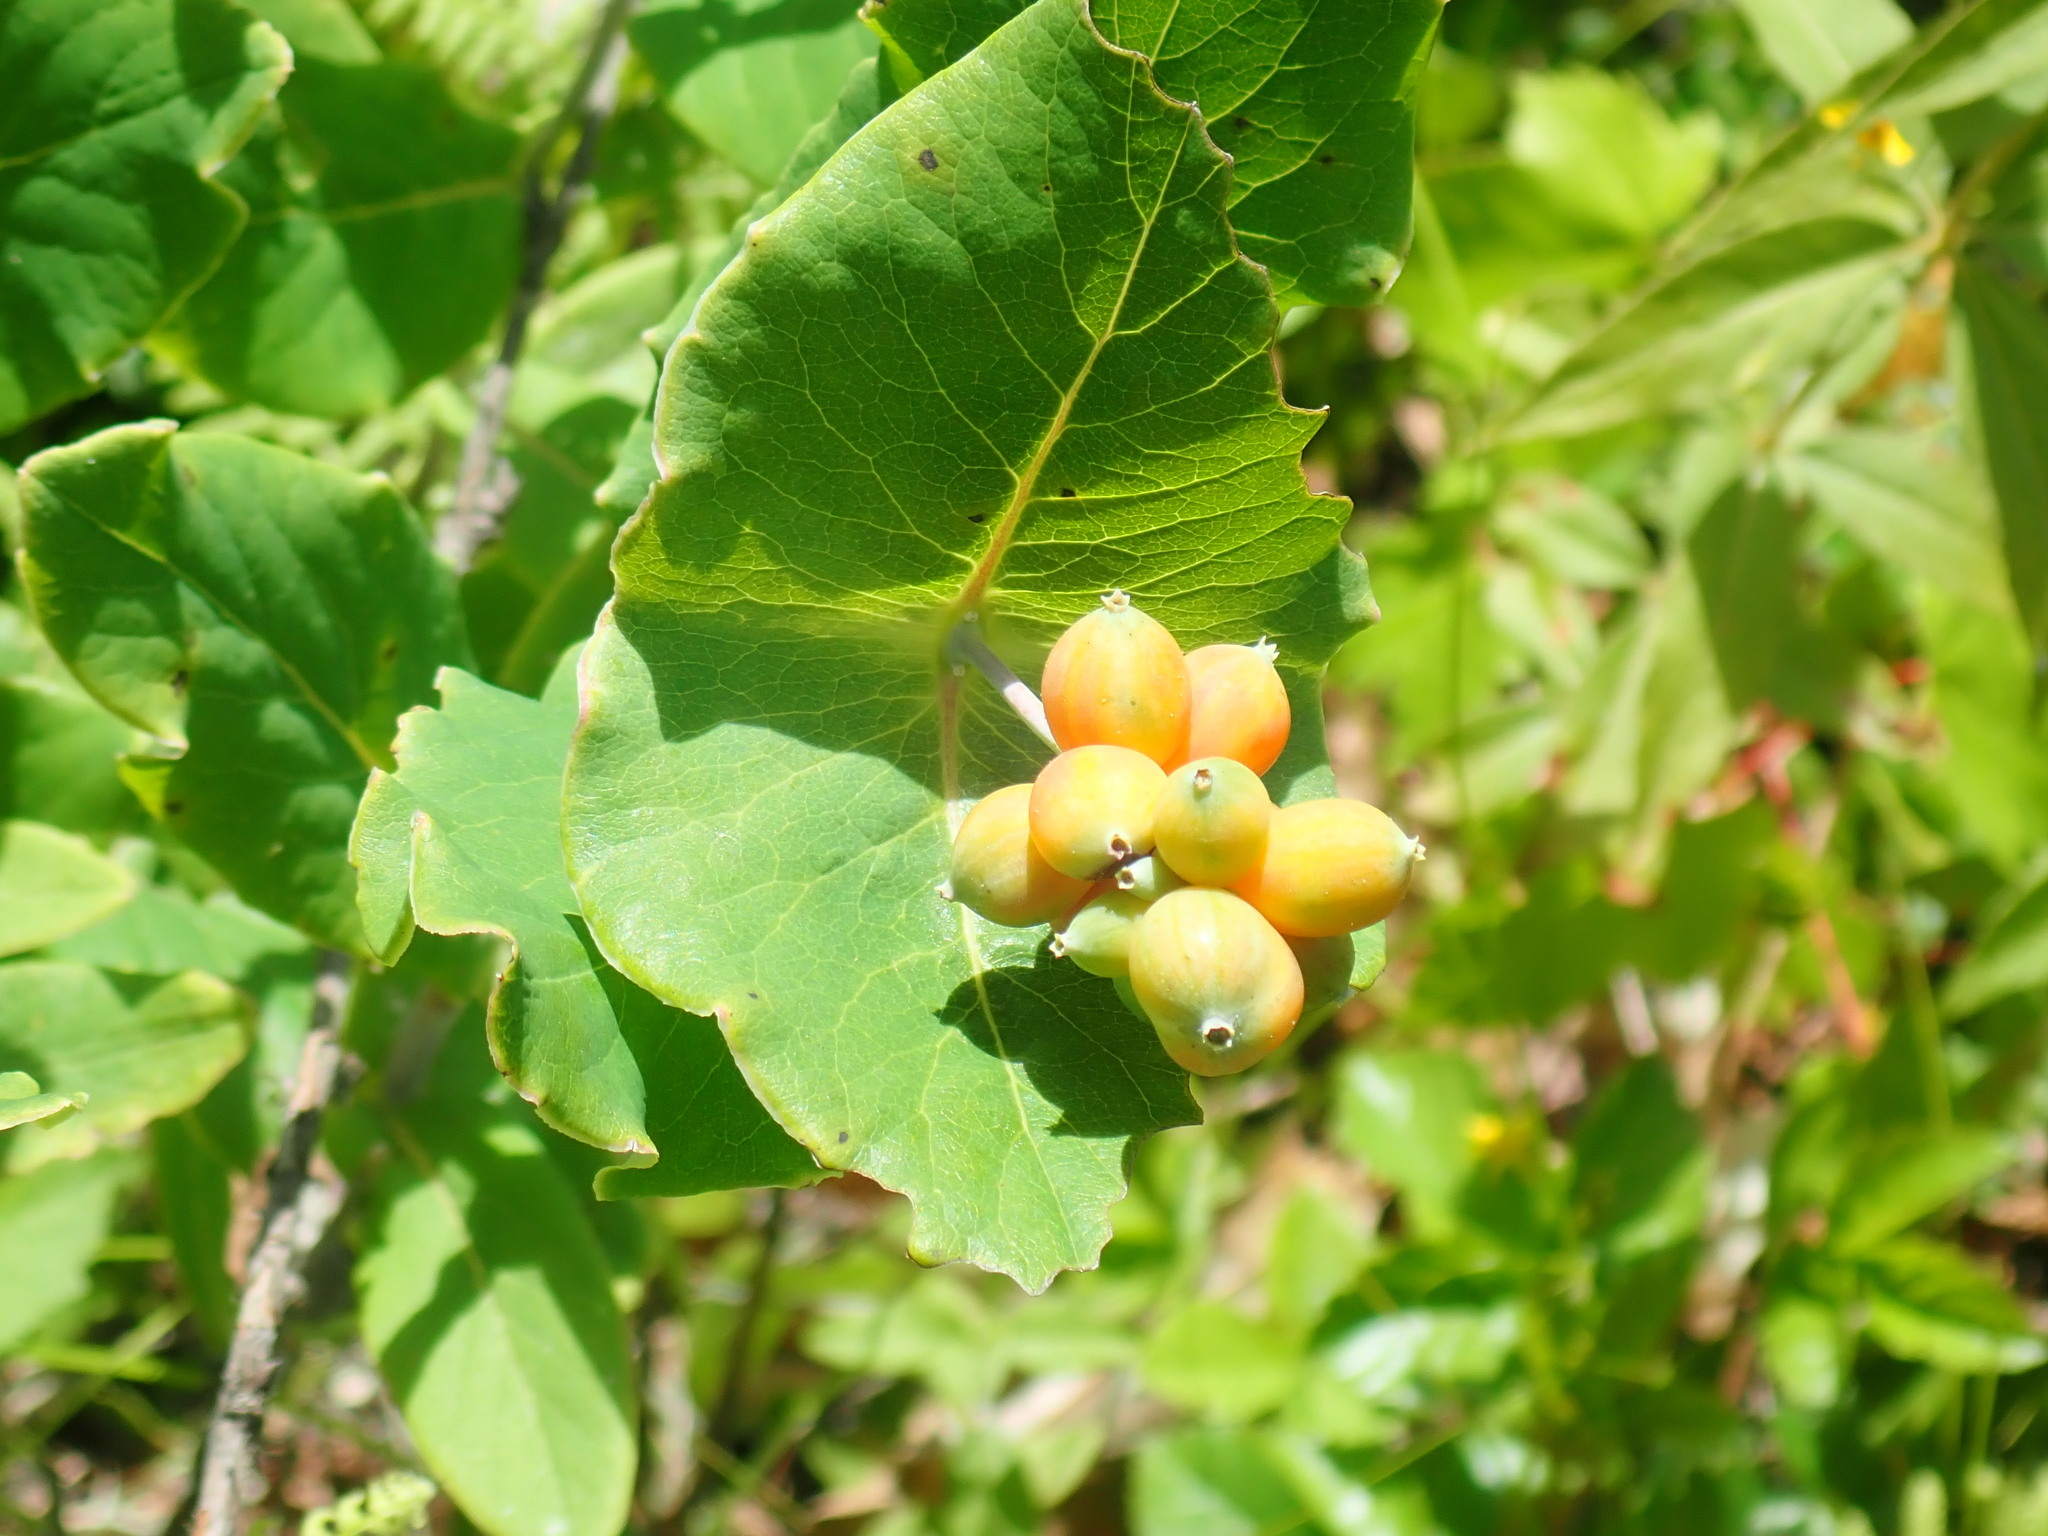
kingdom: Plantae
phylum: Tracheophyta
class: Magnoliopsida
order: Dipsacales
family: Caprifoliaceae
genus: Lonicera
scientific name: Lonicera dioica
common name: Limber honeysuckle
